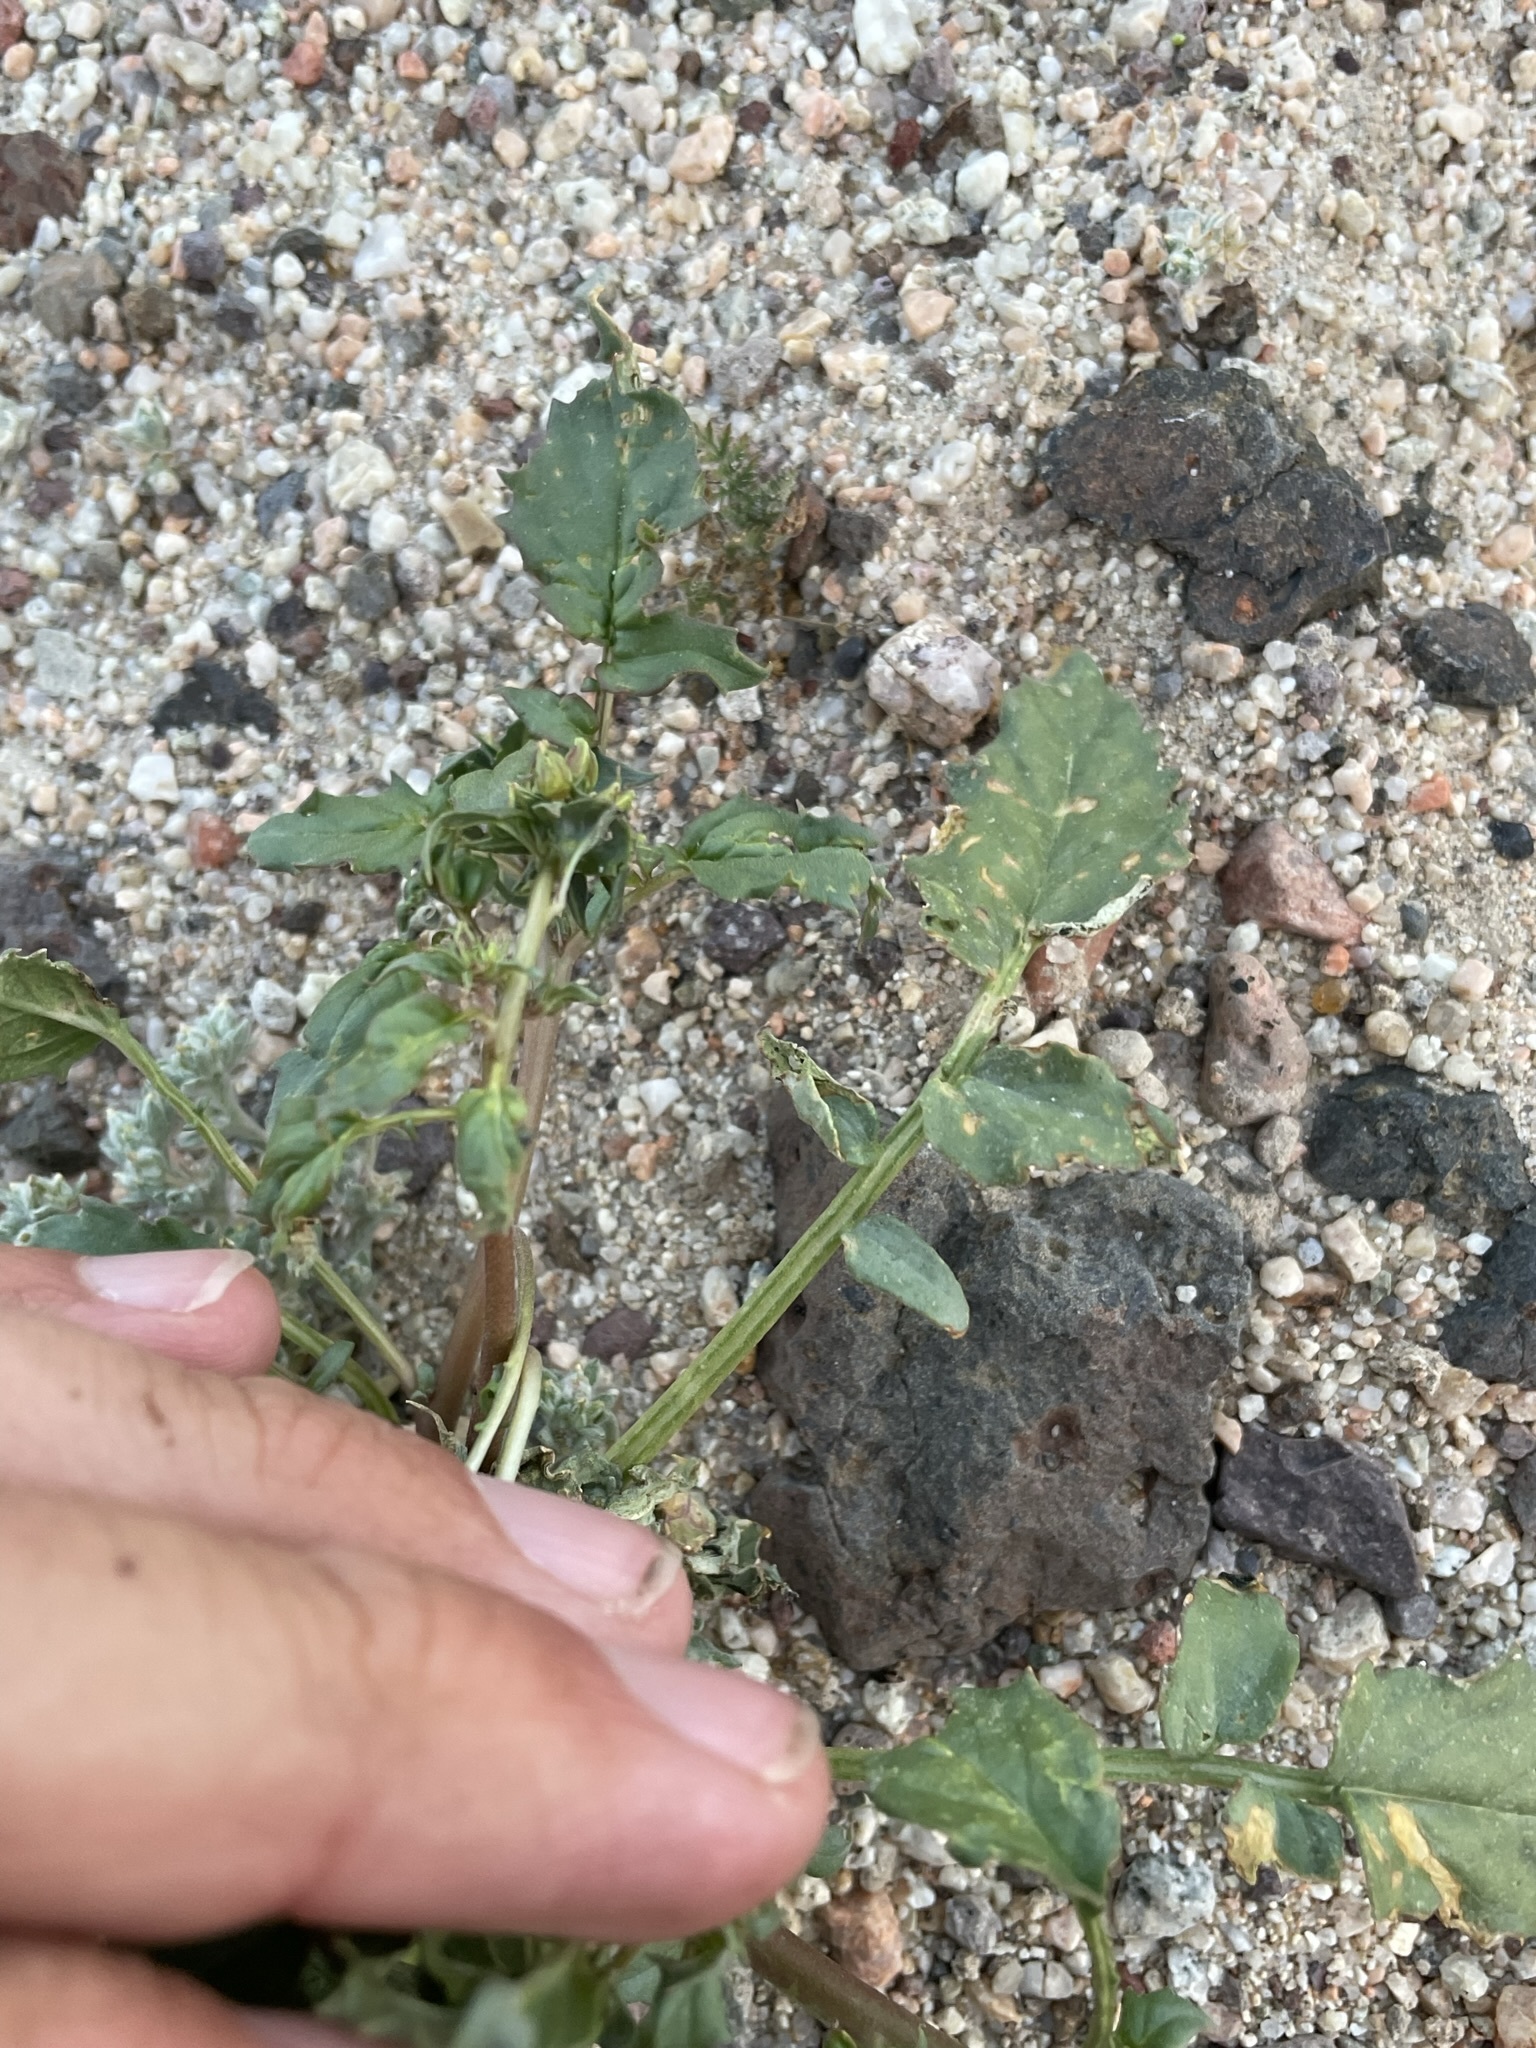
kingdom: Plantae
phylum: Tracheophyta
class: Magnoliopsida
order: Myrtales
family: Onagraceae
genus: Chylismia
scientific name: Chylismia claviformis
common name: Browneyes
